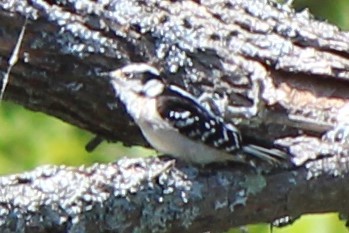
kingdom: Animalia
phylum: Chordata
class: Aves
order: Piciformes
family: Picidae
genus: Dryobates
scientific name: Dryobates pubescens
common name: Downy woodpecker
